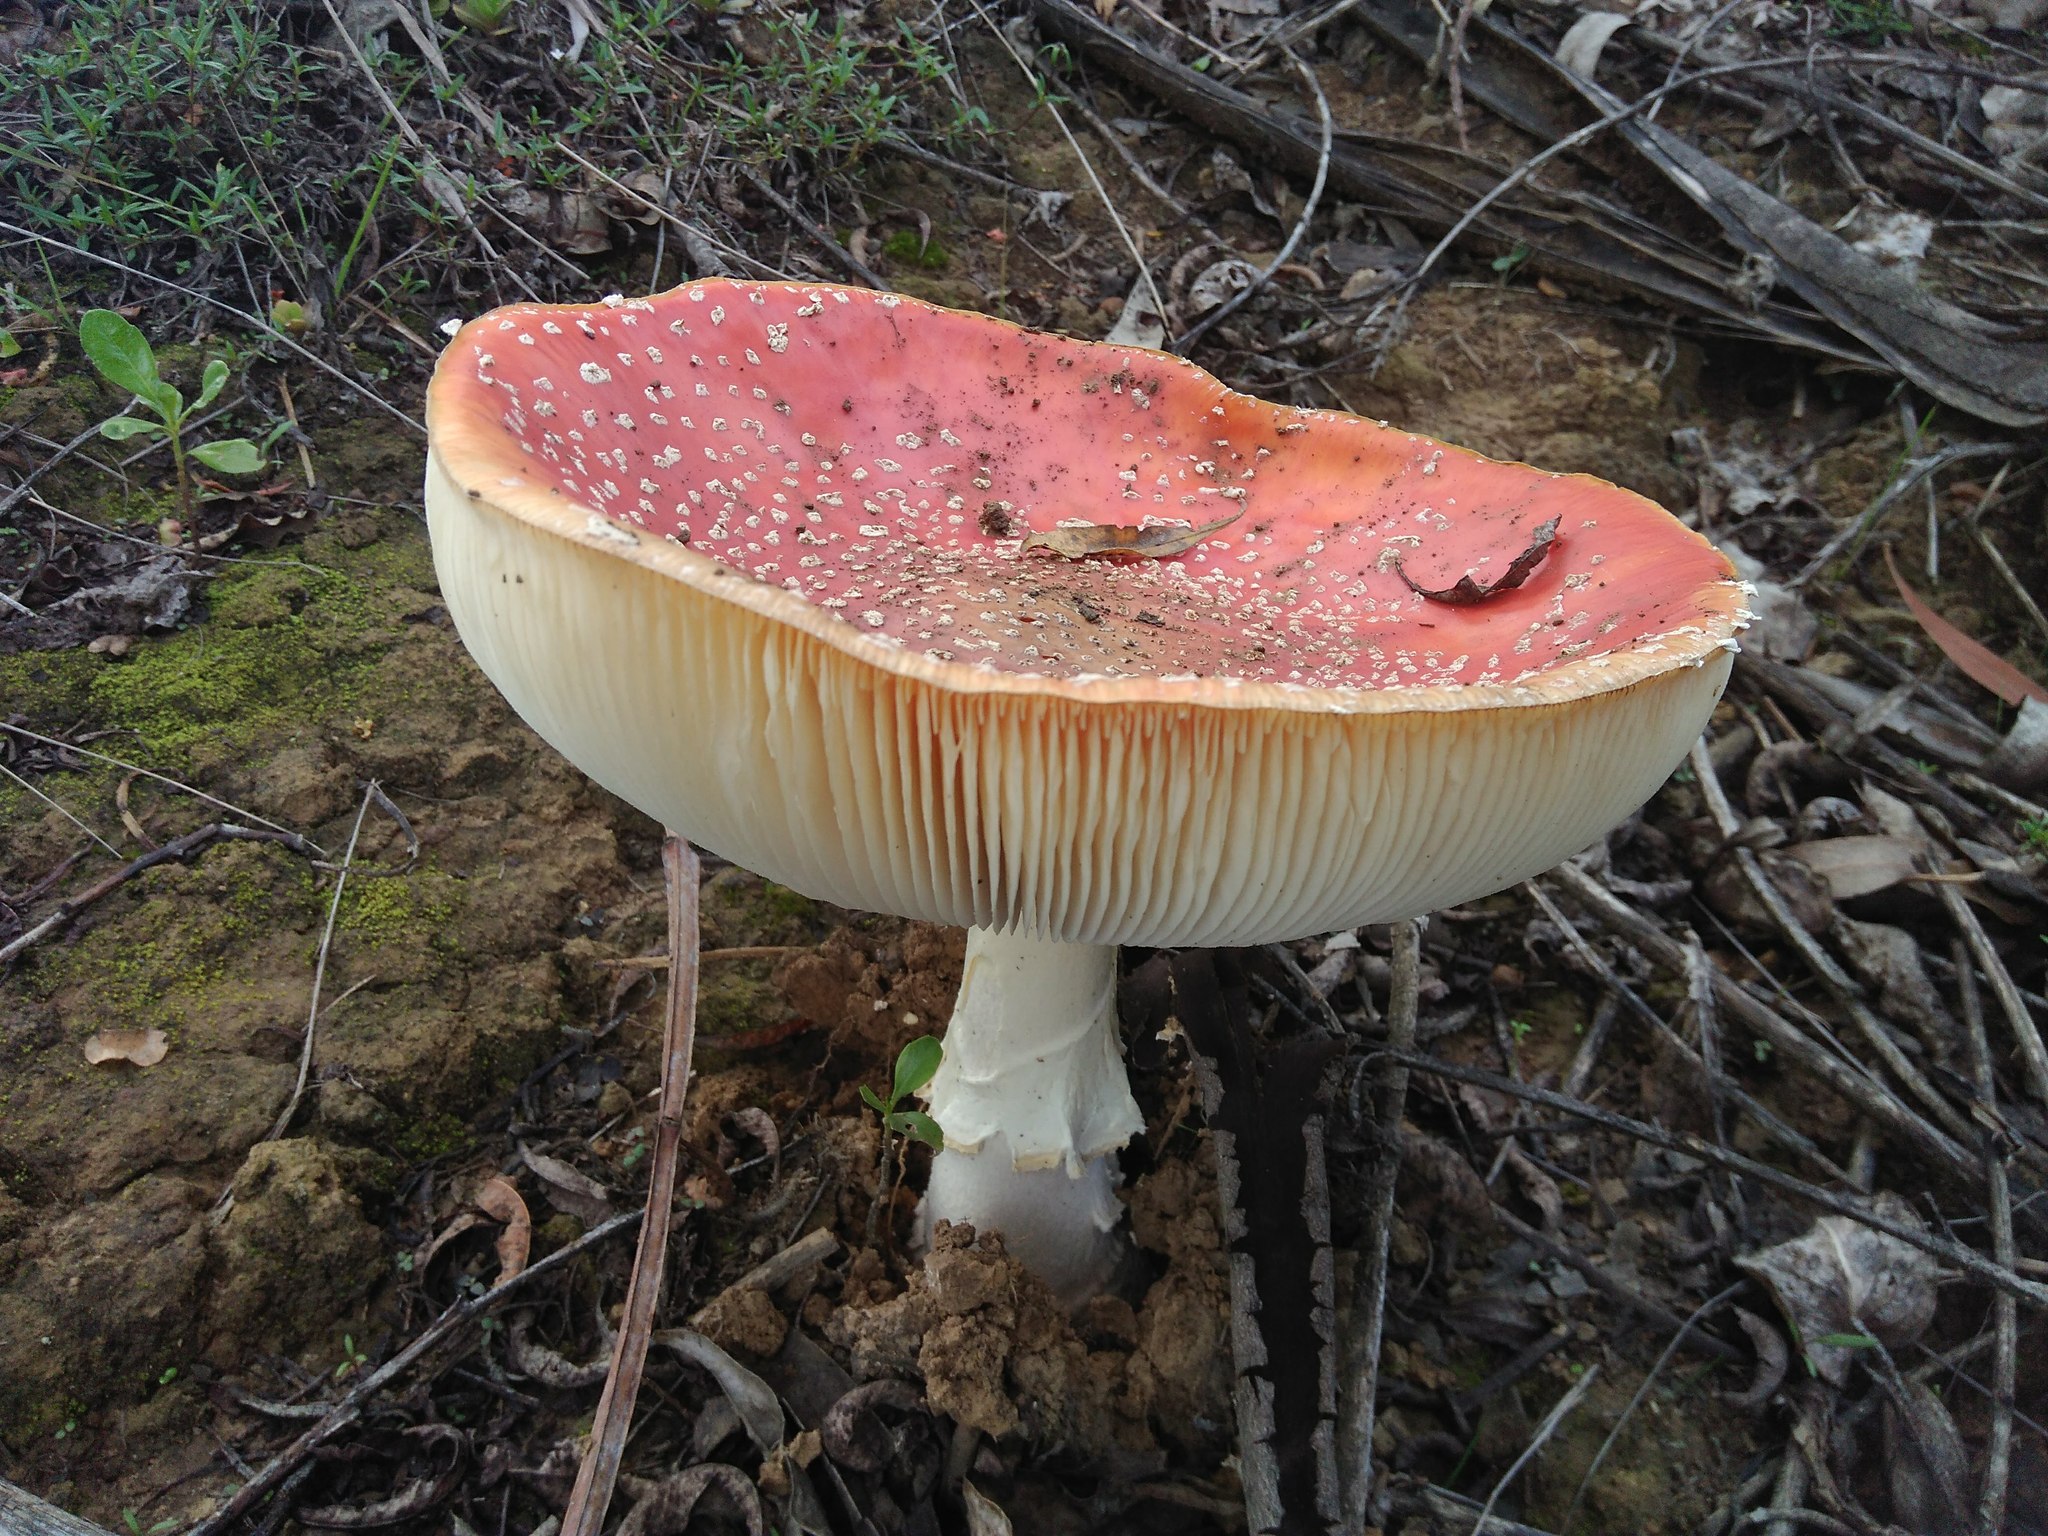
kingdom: Fungi
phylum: Basidiomycota
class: Agaricomycetes
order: Agaricales
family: Amanitaceae
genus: Amanita
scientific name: Amanita muscaria
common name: Fly agaric
